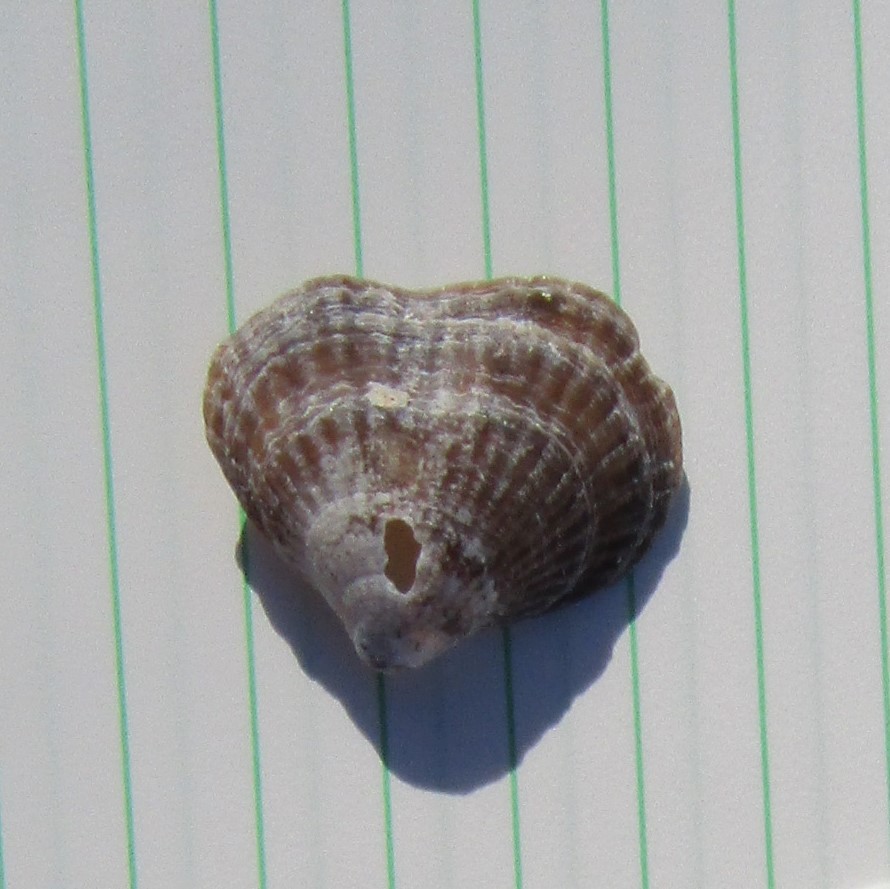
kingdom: Animalia
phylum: Brachiopoda
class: Rhynchonellata
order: Rhynchonellida
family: Notosariidae
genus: Notosaria
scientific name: Notosaria nigricans
